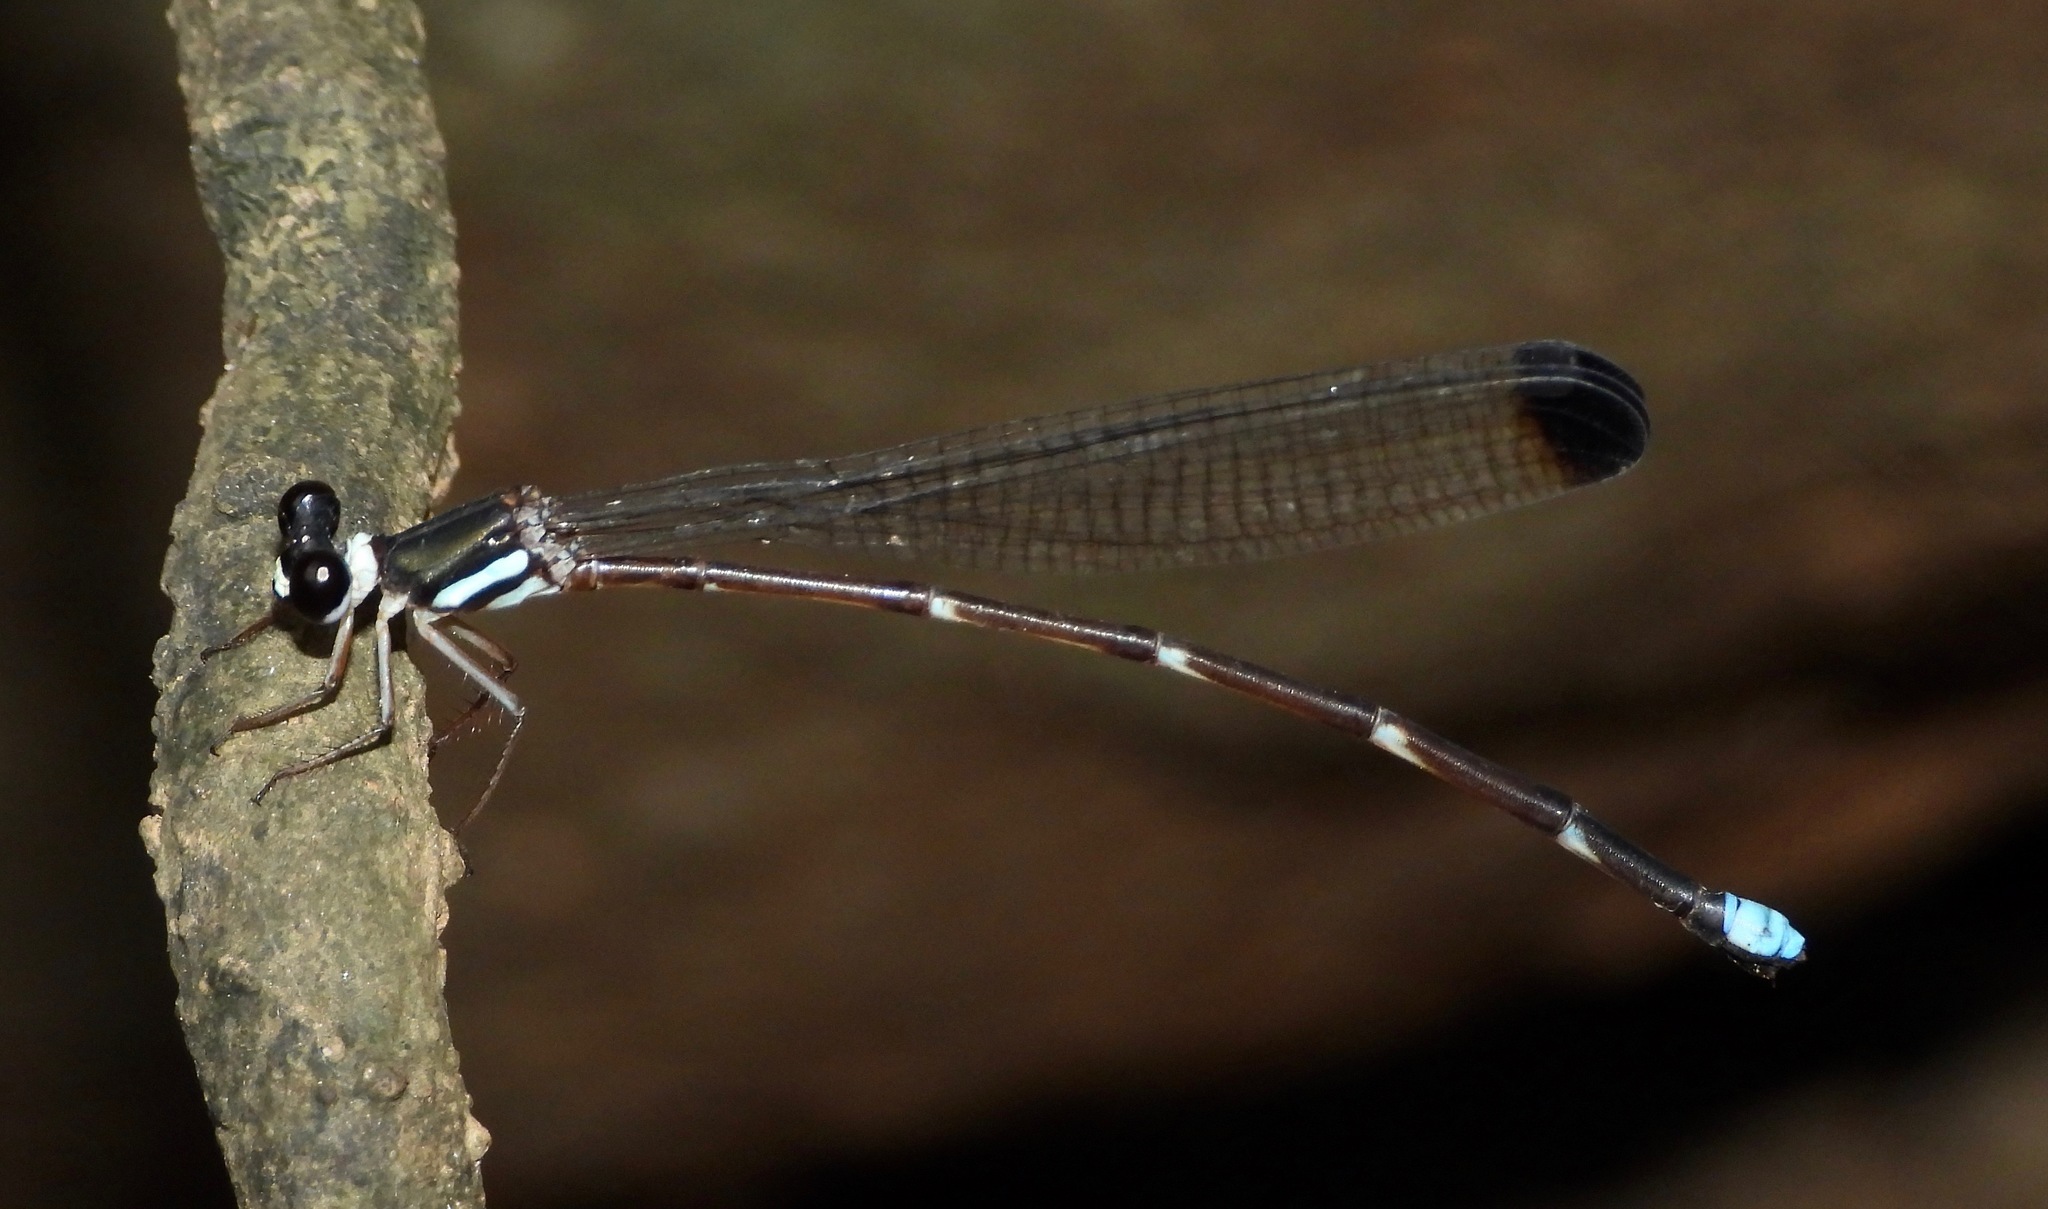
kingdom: Animalia
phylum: Arthropoda
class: Insecta
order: Odonata
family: Platystictidae
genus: Platysticta
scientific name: Platysticta secreta
